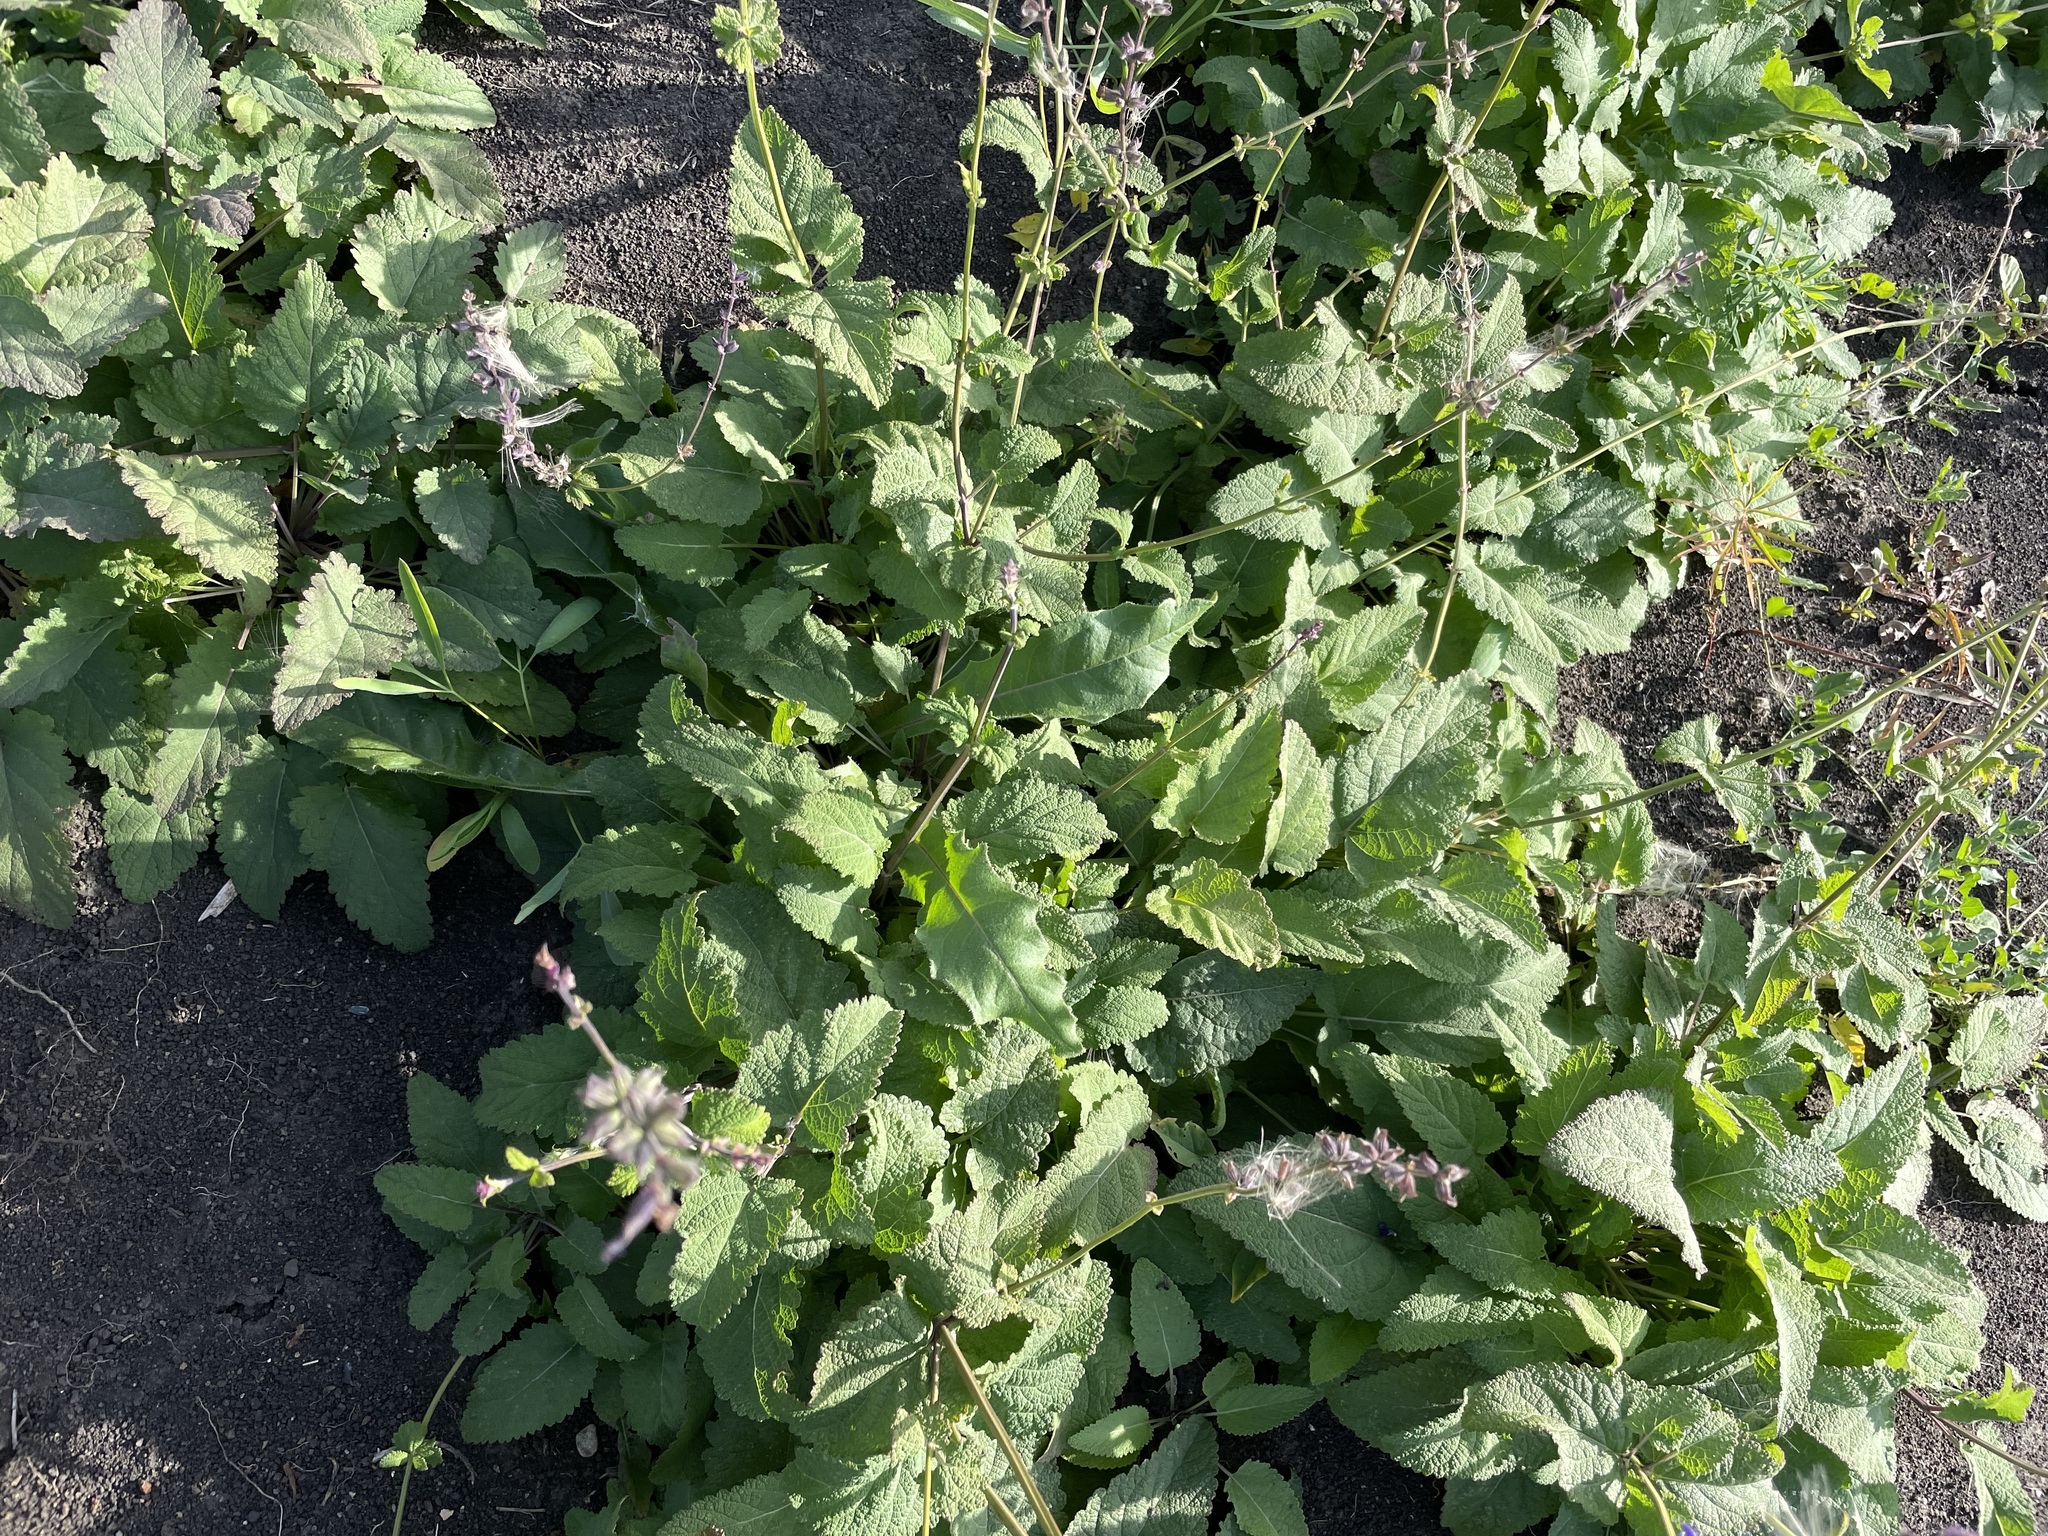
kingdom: Plantae
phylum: Tracheophyta
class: Magnoliopsida
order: Lamiales
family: Lamiaceae
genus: Salvia
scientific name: Salvia dumetorum
